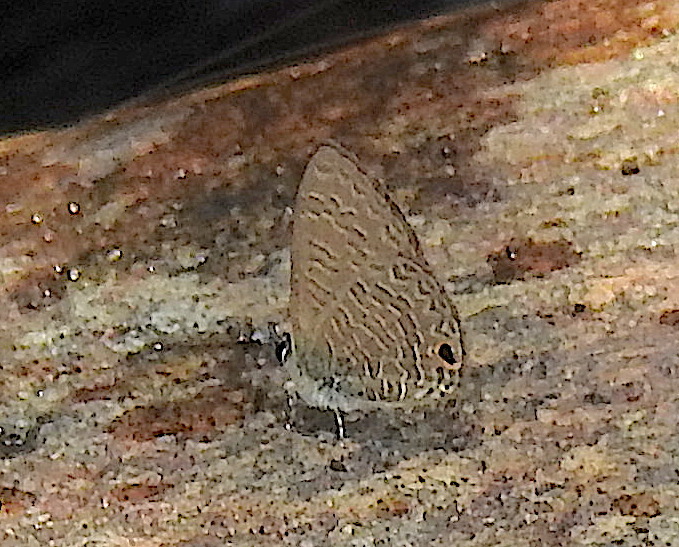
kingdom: Animalia
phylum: Arthropoda
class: Insecta
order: Lepidoptera
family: Lycaenidae
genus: Prosotas
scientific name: Prosotas dubiosa
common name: Tailless lineblue
